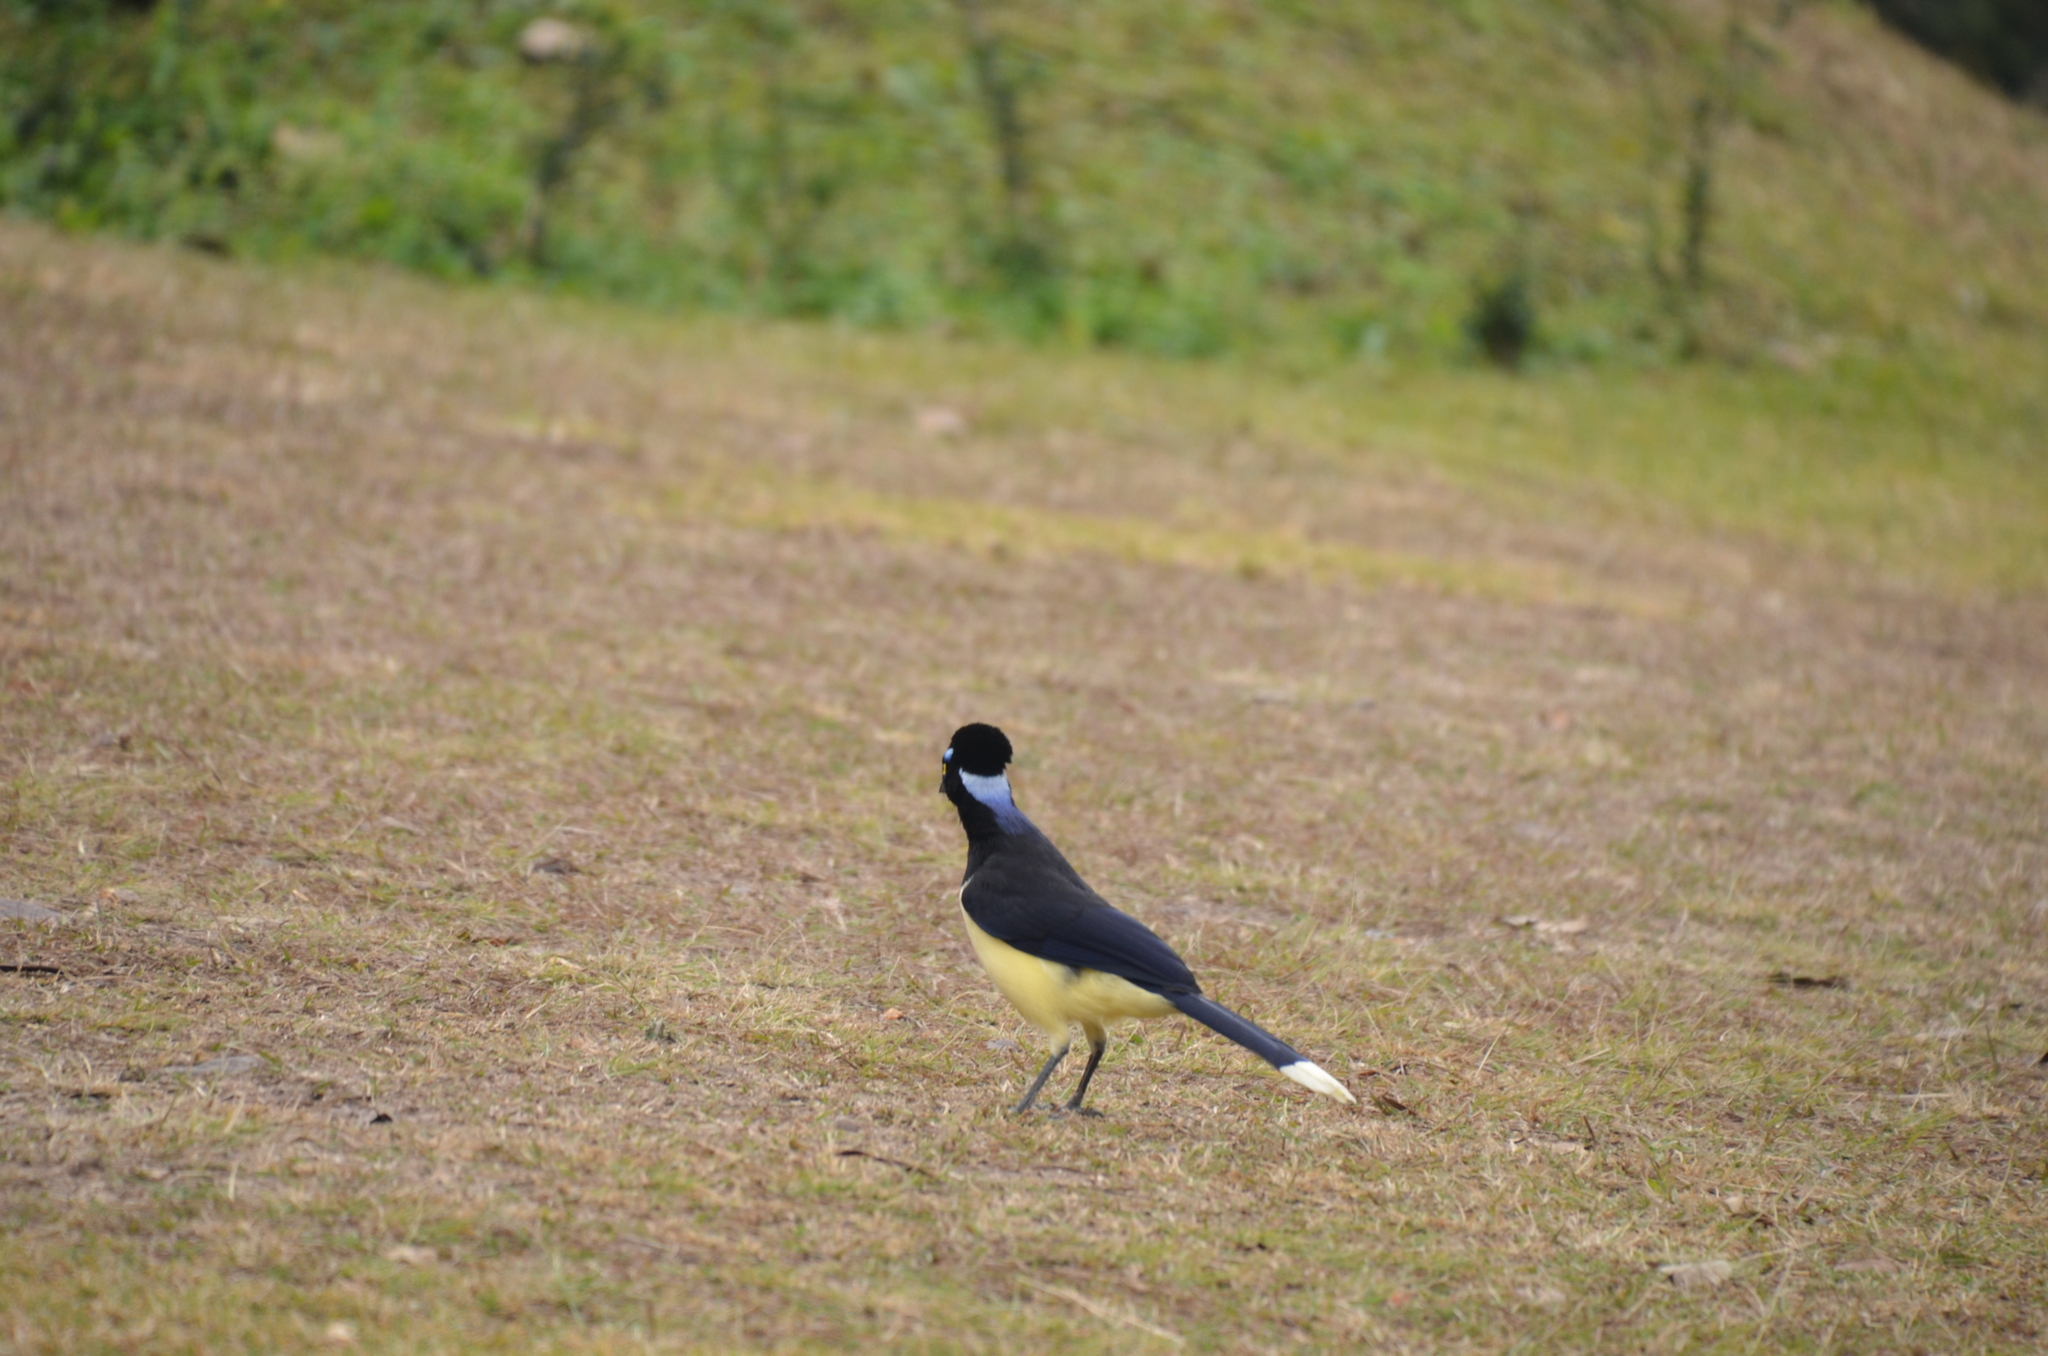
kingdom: Animalia
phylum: Chordata
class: Aves
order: Passeriformes
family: Corvidae
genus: Cyanocorax
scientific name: Cyanocorax chrysops
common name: Plush-crested jay
